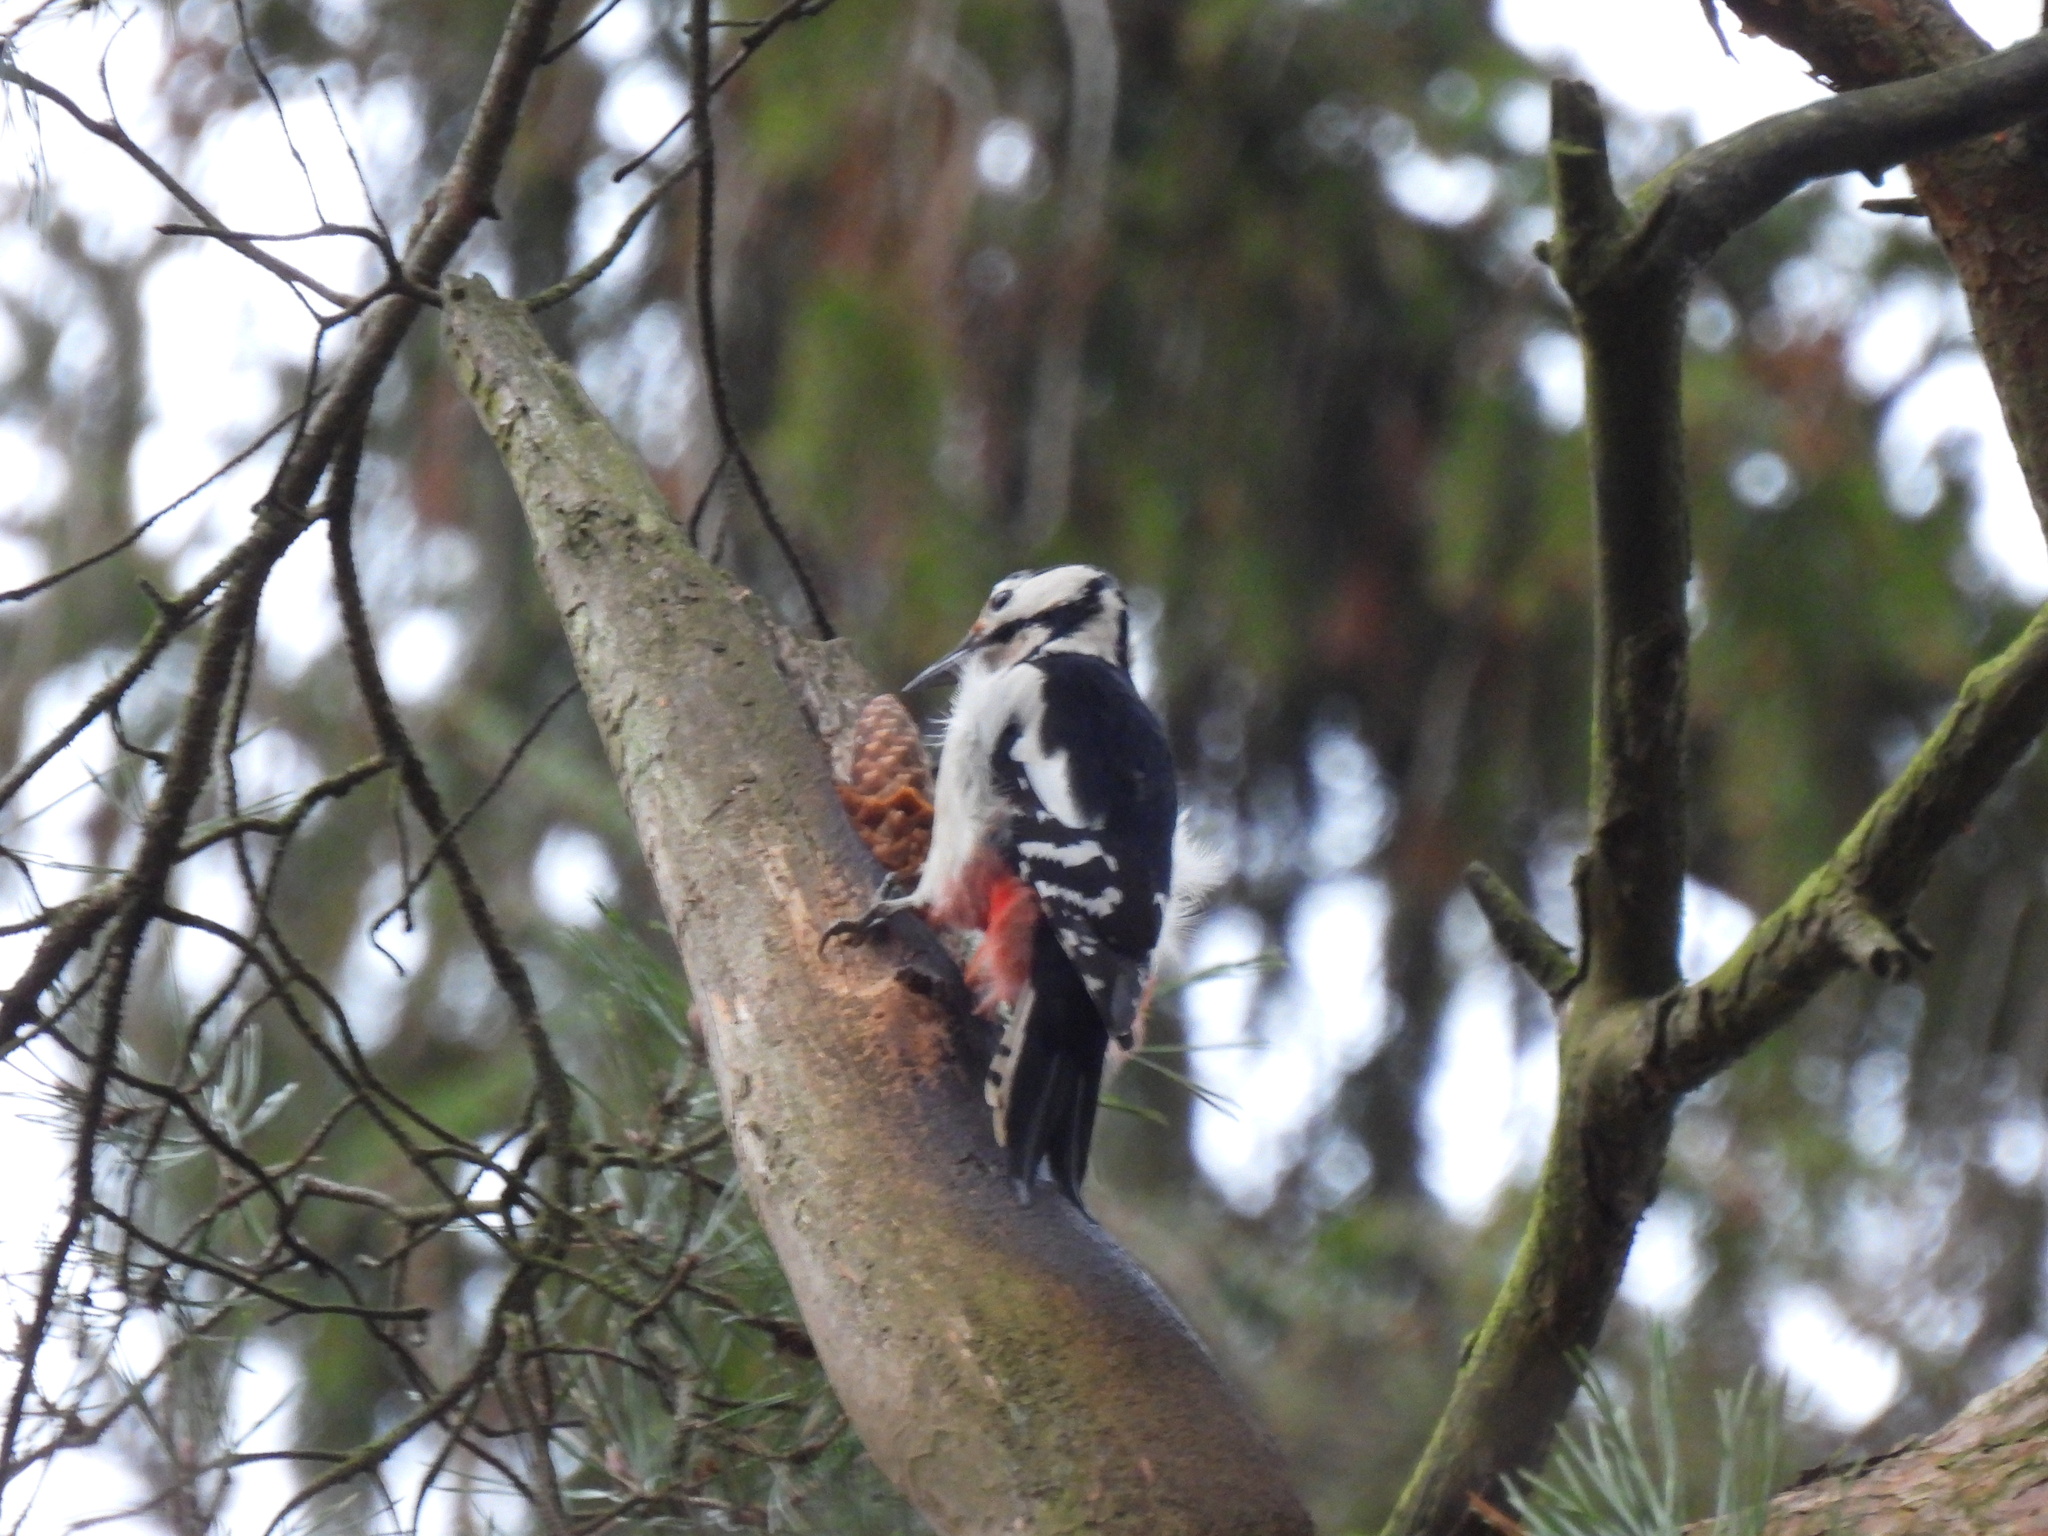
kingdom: Animalia
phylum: Chordata
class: Aves
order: Piciformes
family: Picidae
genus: Dendrocopos
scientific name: Dendrocopos major
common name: Great spotted woodpecker
